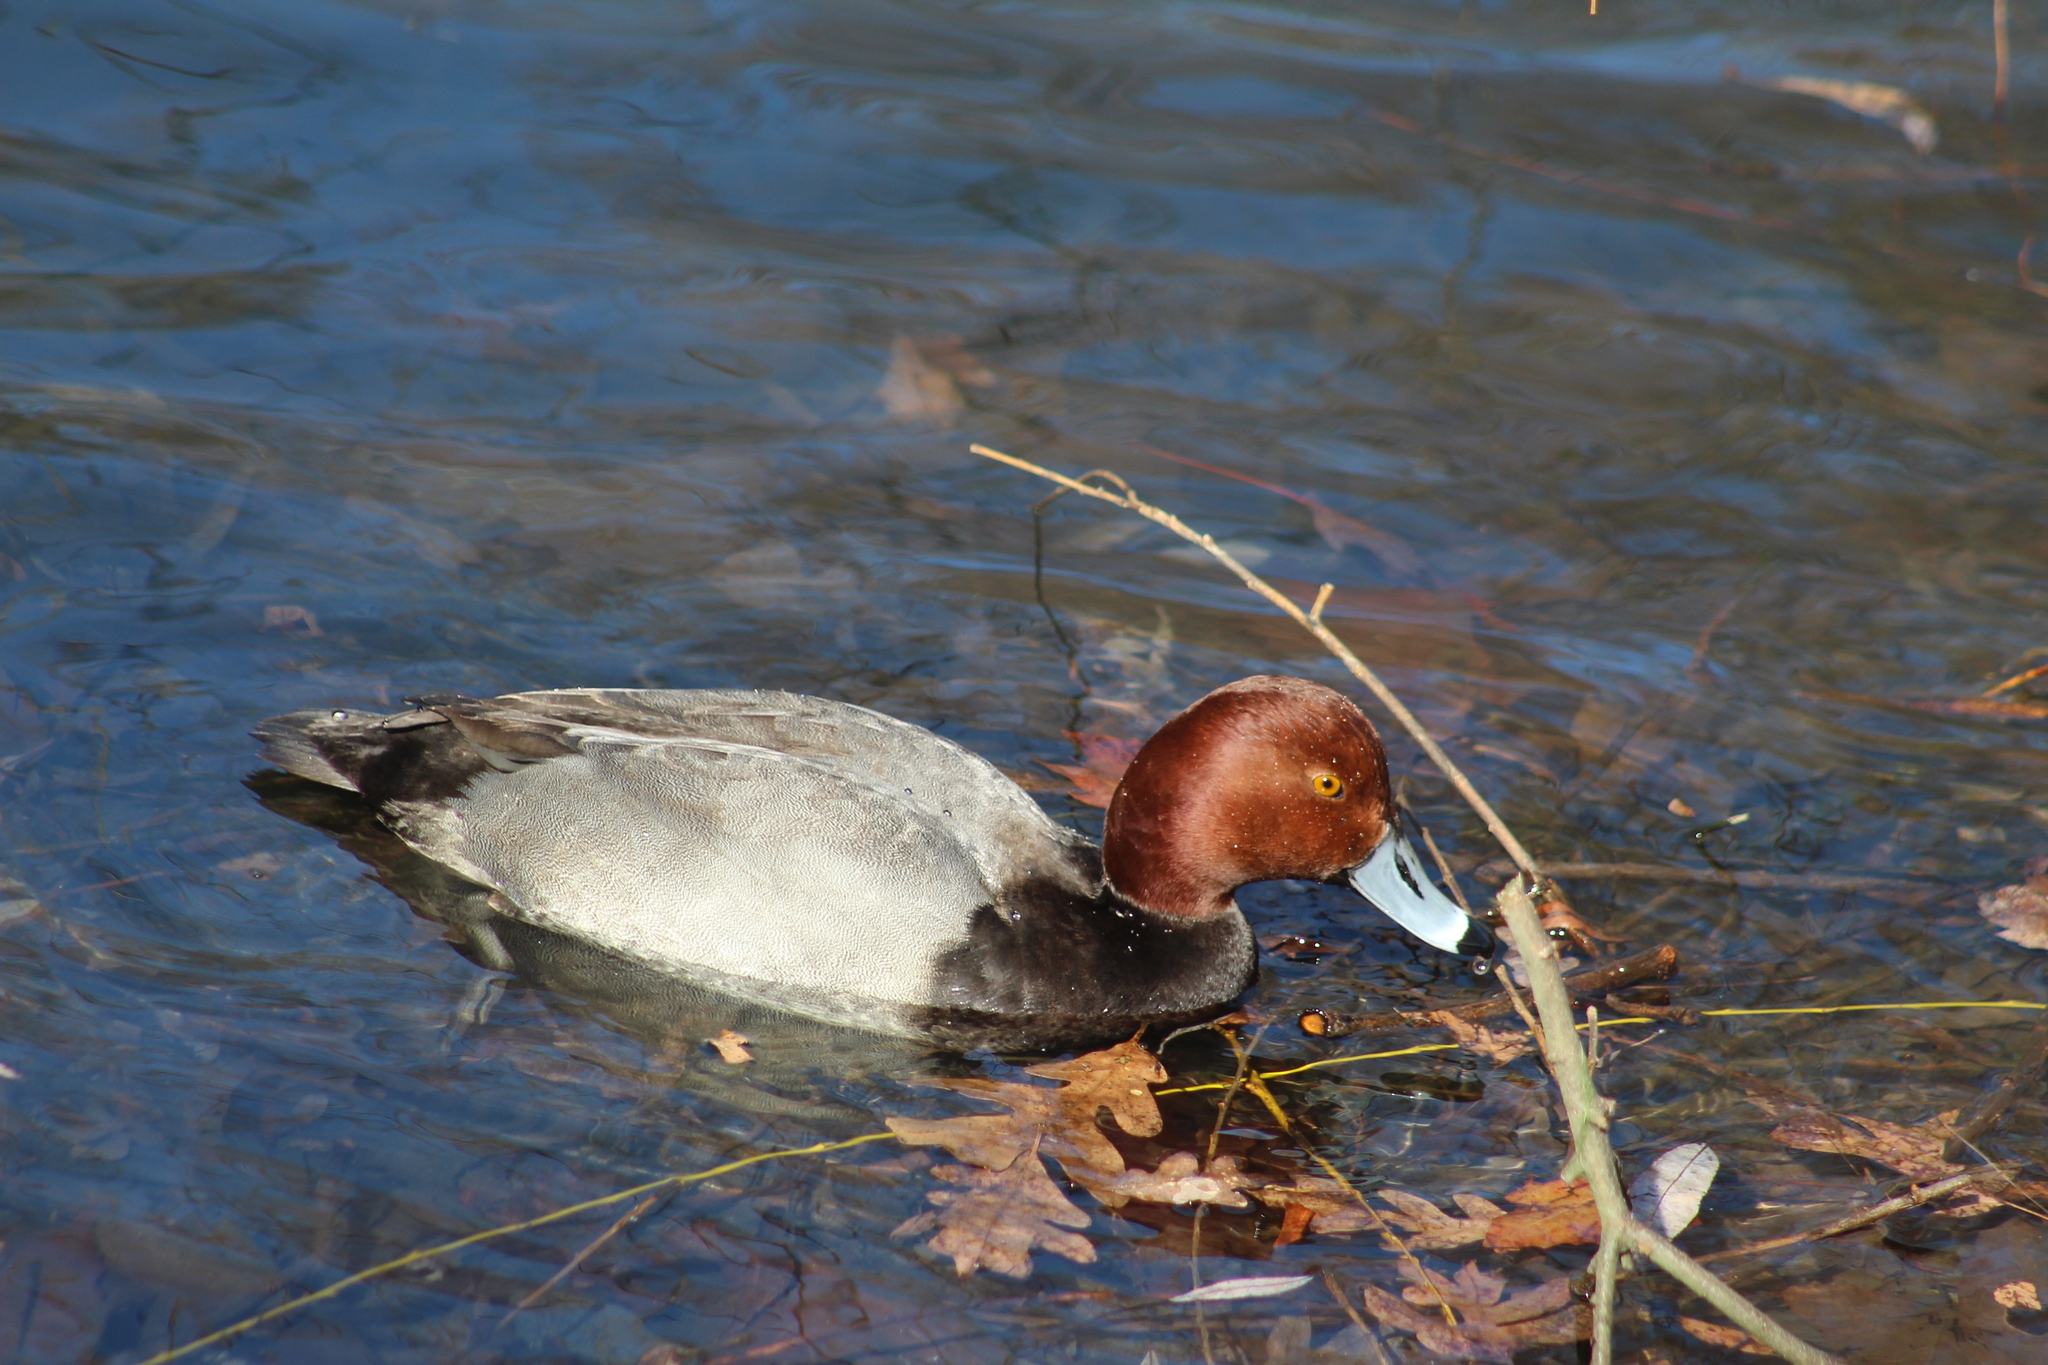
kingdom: Animalia
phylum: Chordata
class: Aves
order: Anseriformes
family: Anatidae
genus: Aythya
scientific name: Aythya americana
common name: Redhead
